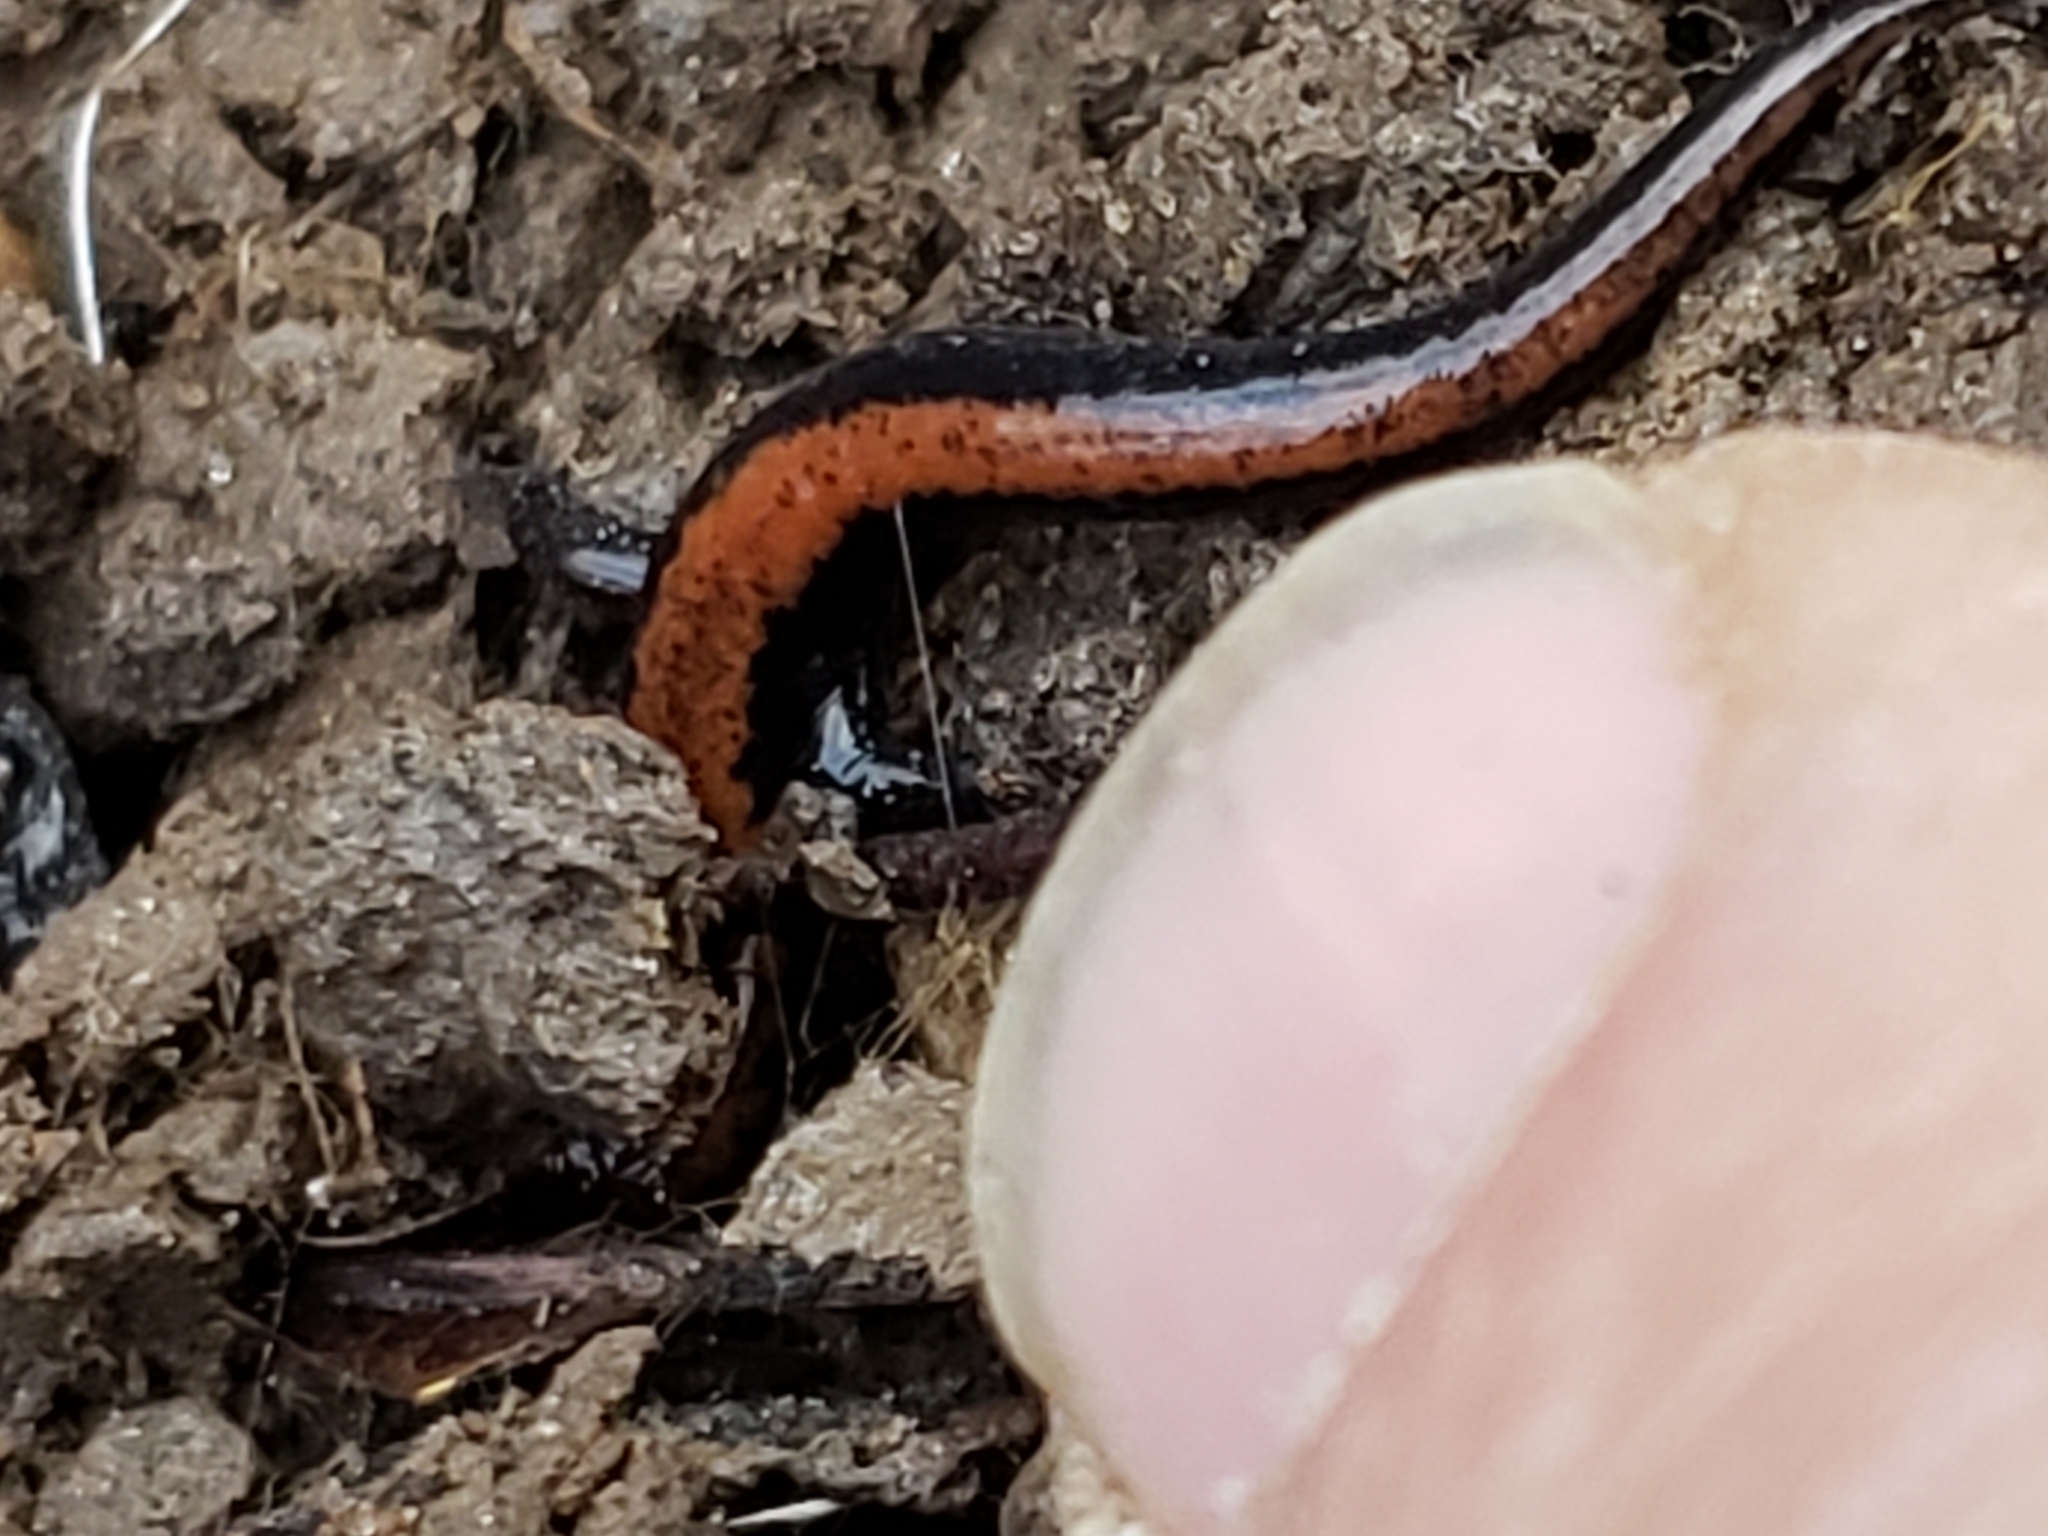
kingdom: Animalia
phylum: Chordata
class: Amphibia
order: Caudata
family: Plethodontidae
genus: Plethodon
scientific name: Plethodon cinereus
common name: Redback salamander
